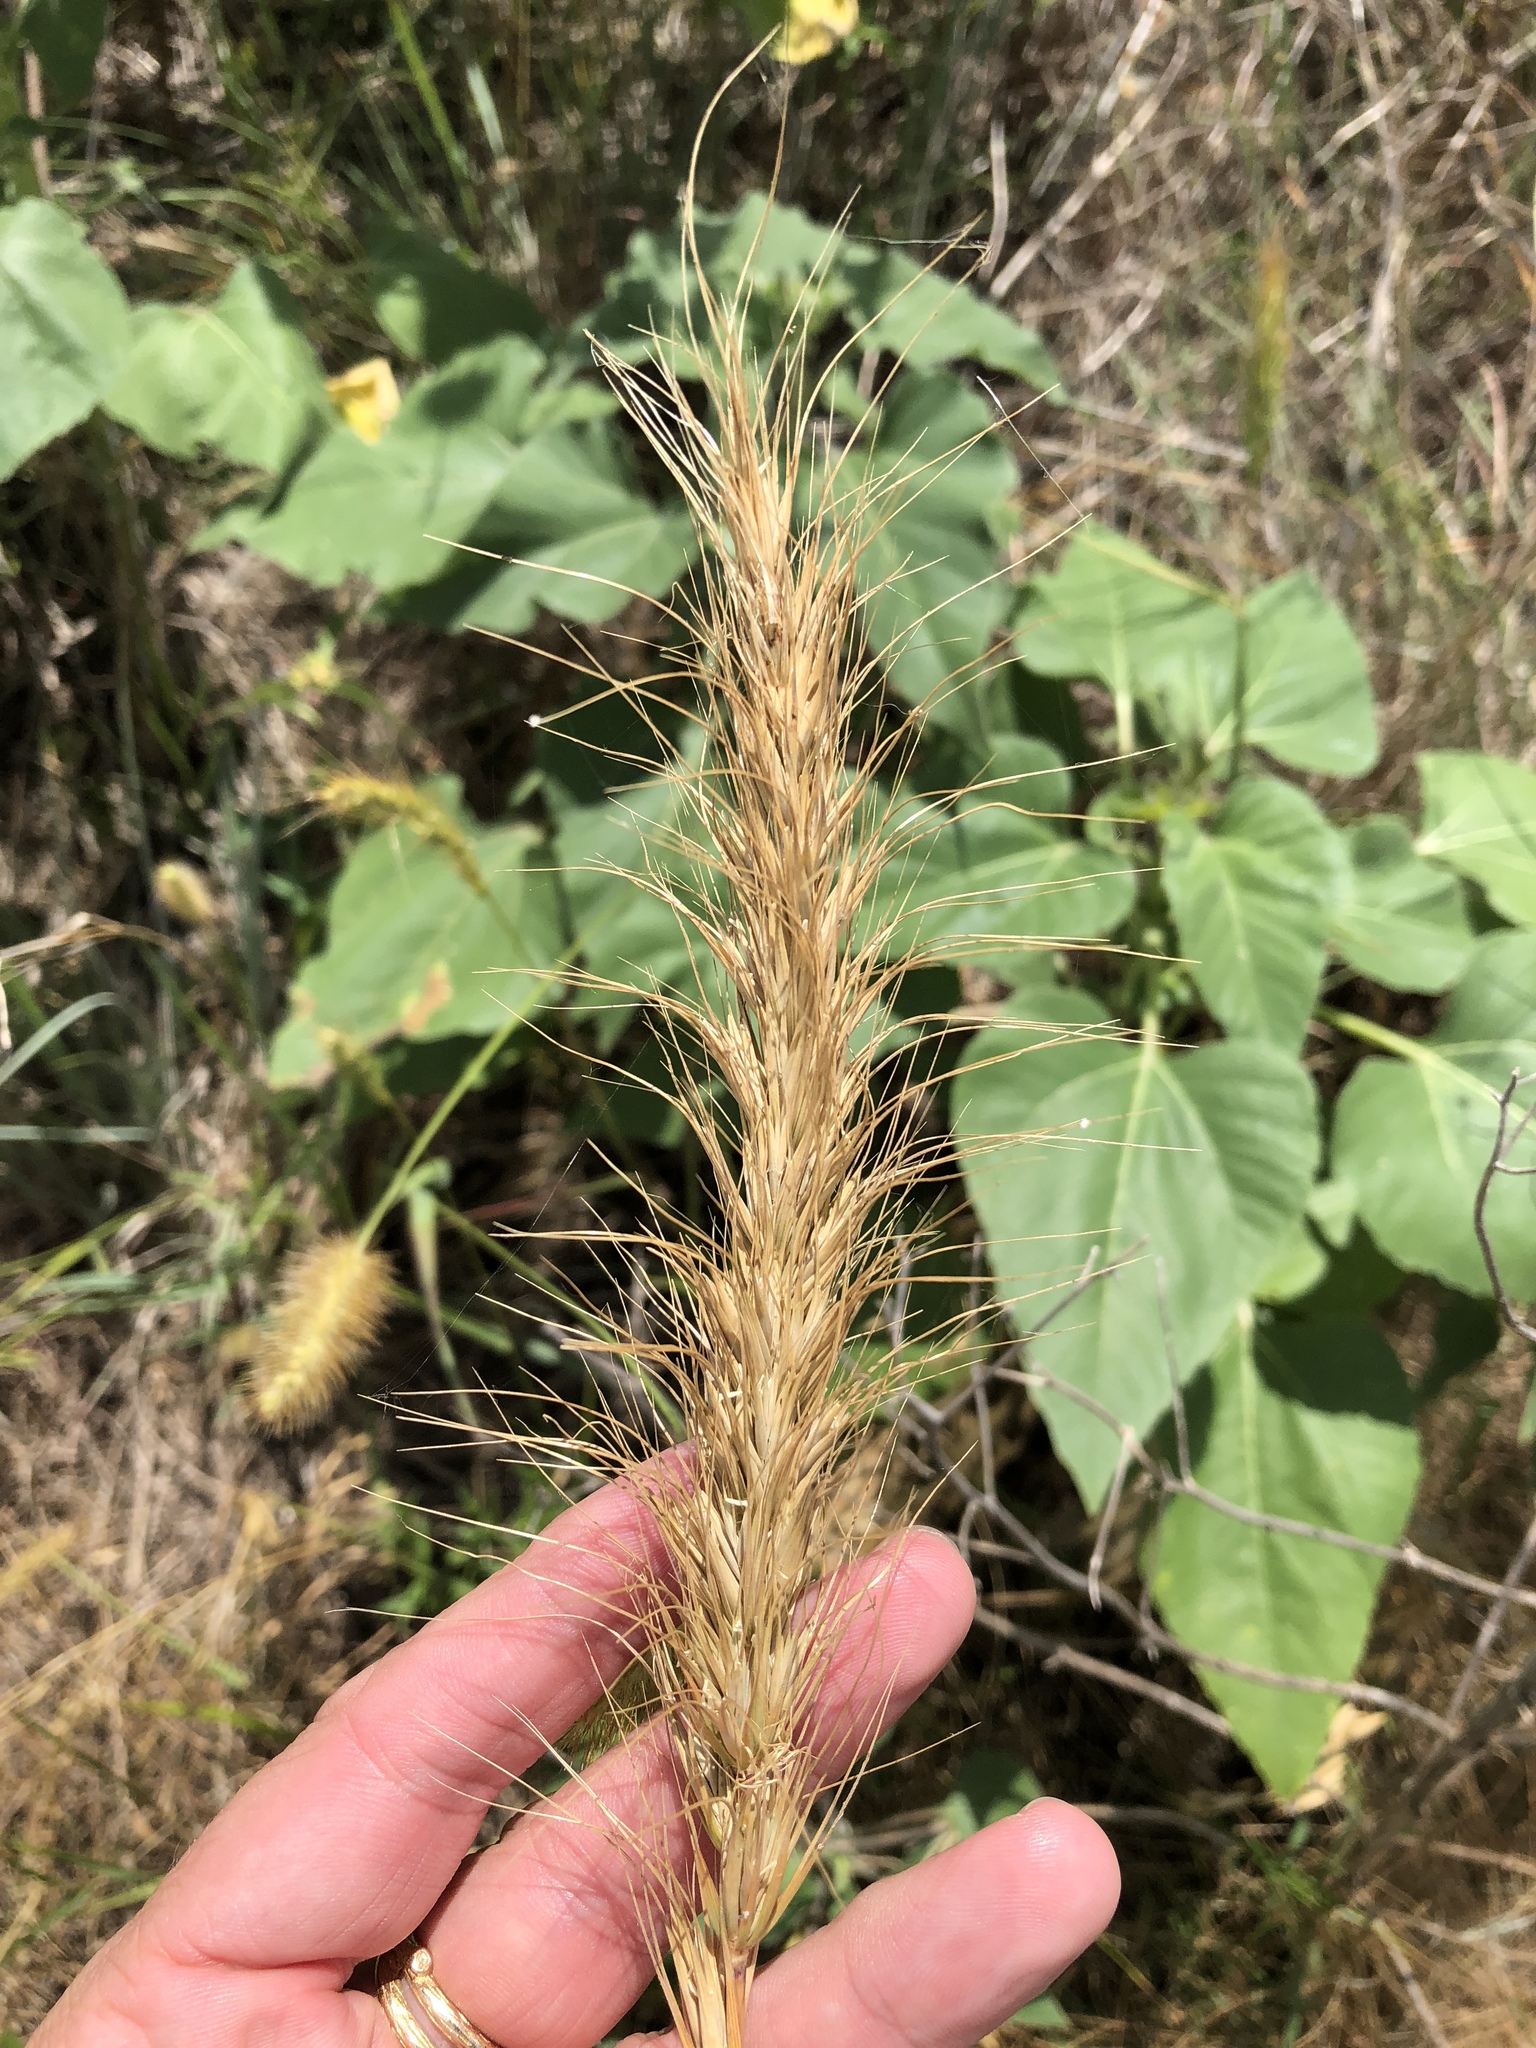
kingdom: Plantae
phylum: Tracheophyta
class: Liliopsida
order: Poales
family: Poaceae
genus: Elymus
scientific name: Elymus canadensis
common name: Canada wild rye
